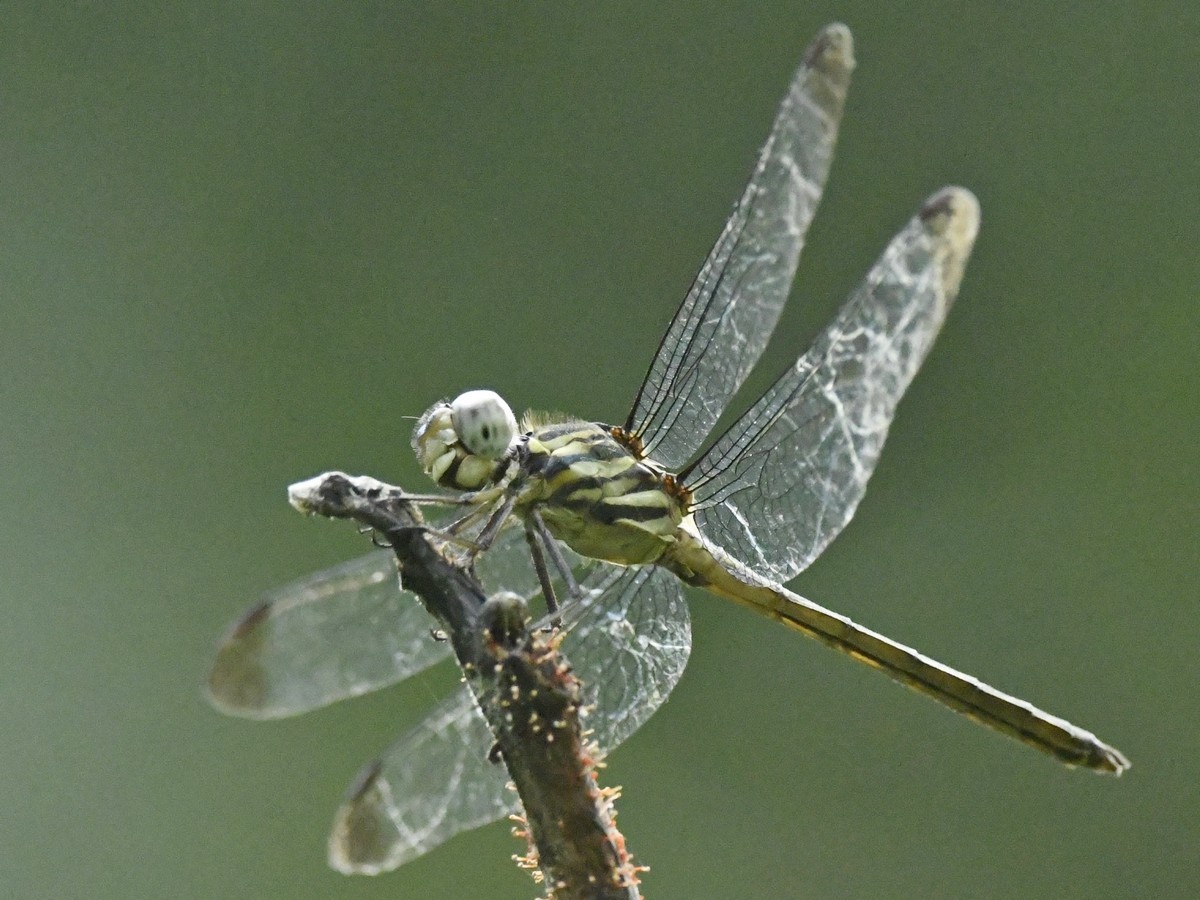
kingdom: Animalia
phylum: Arthropoda
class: Insecta
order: Odonata
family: Libellulidae
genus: Cratilla
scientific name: Cratilla lineata
